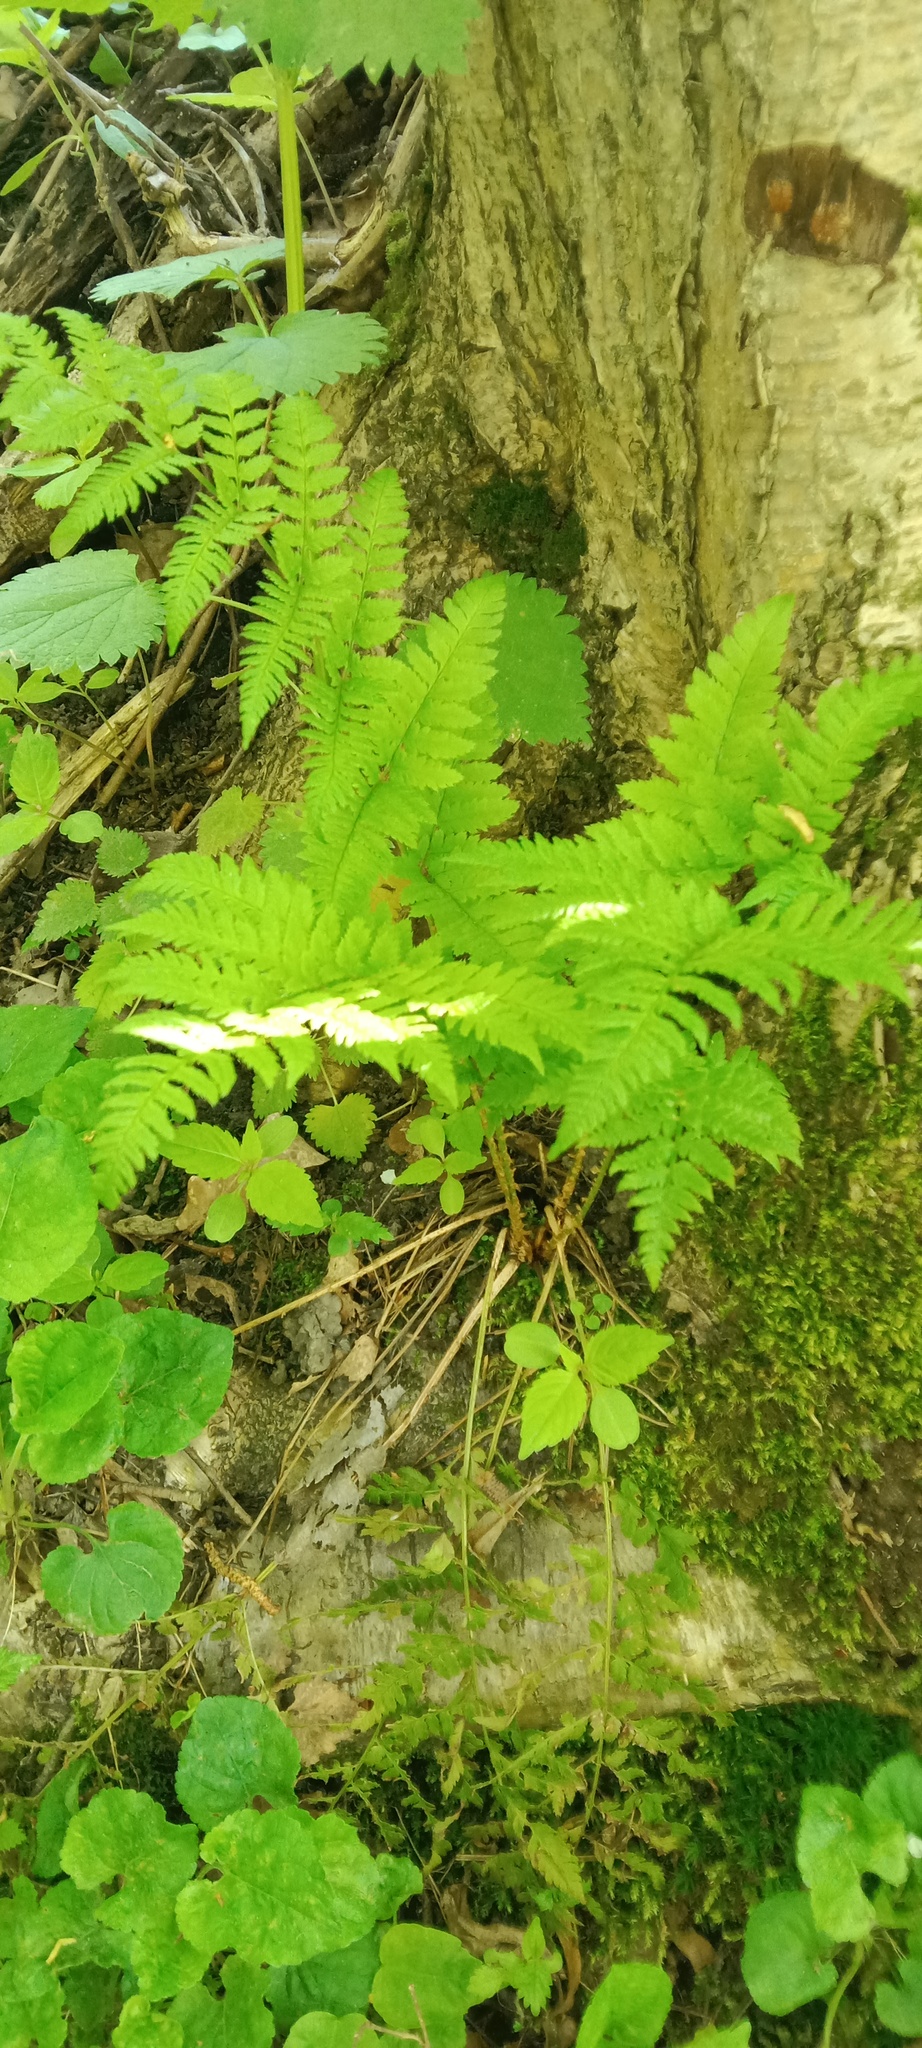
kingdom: Plantae
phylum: Tracheophyta
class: Polypodiopsida
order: Polypodiales
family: Dryopteridaceae
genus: Dryopteris
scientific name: Dryopteris carthusiana
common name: Narrow buckler-fern
